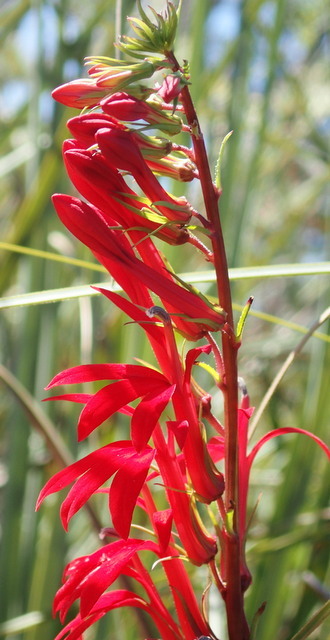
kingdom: Plantae
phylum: Tracheophyta
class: Magnoliopsida
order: Asterales
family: Campanulaceae
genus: Lobelia
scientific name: Lobelia cardinalis
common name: Cardinal flower
